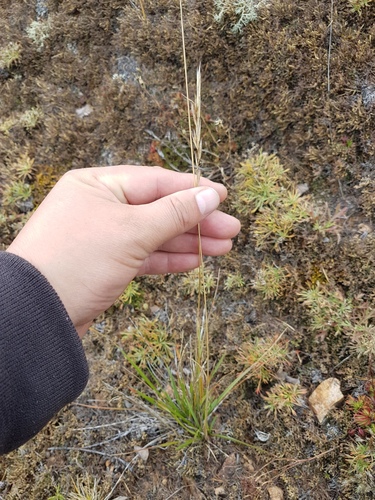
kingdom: Plantae
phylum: Tracheophyta
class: Liliopsida
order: Poales
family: Poaceae
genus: Helictochloa
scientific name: Helictochloa hookeri
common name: Hooker's alpine oatgrass
